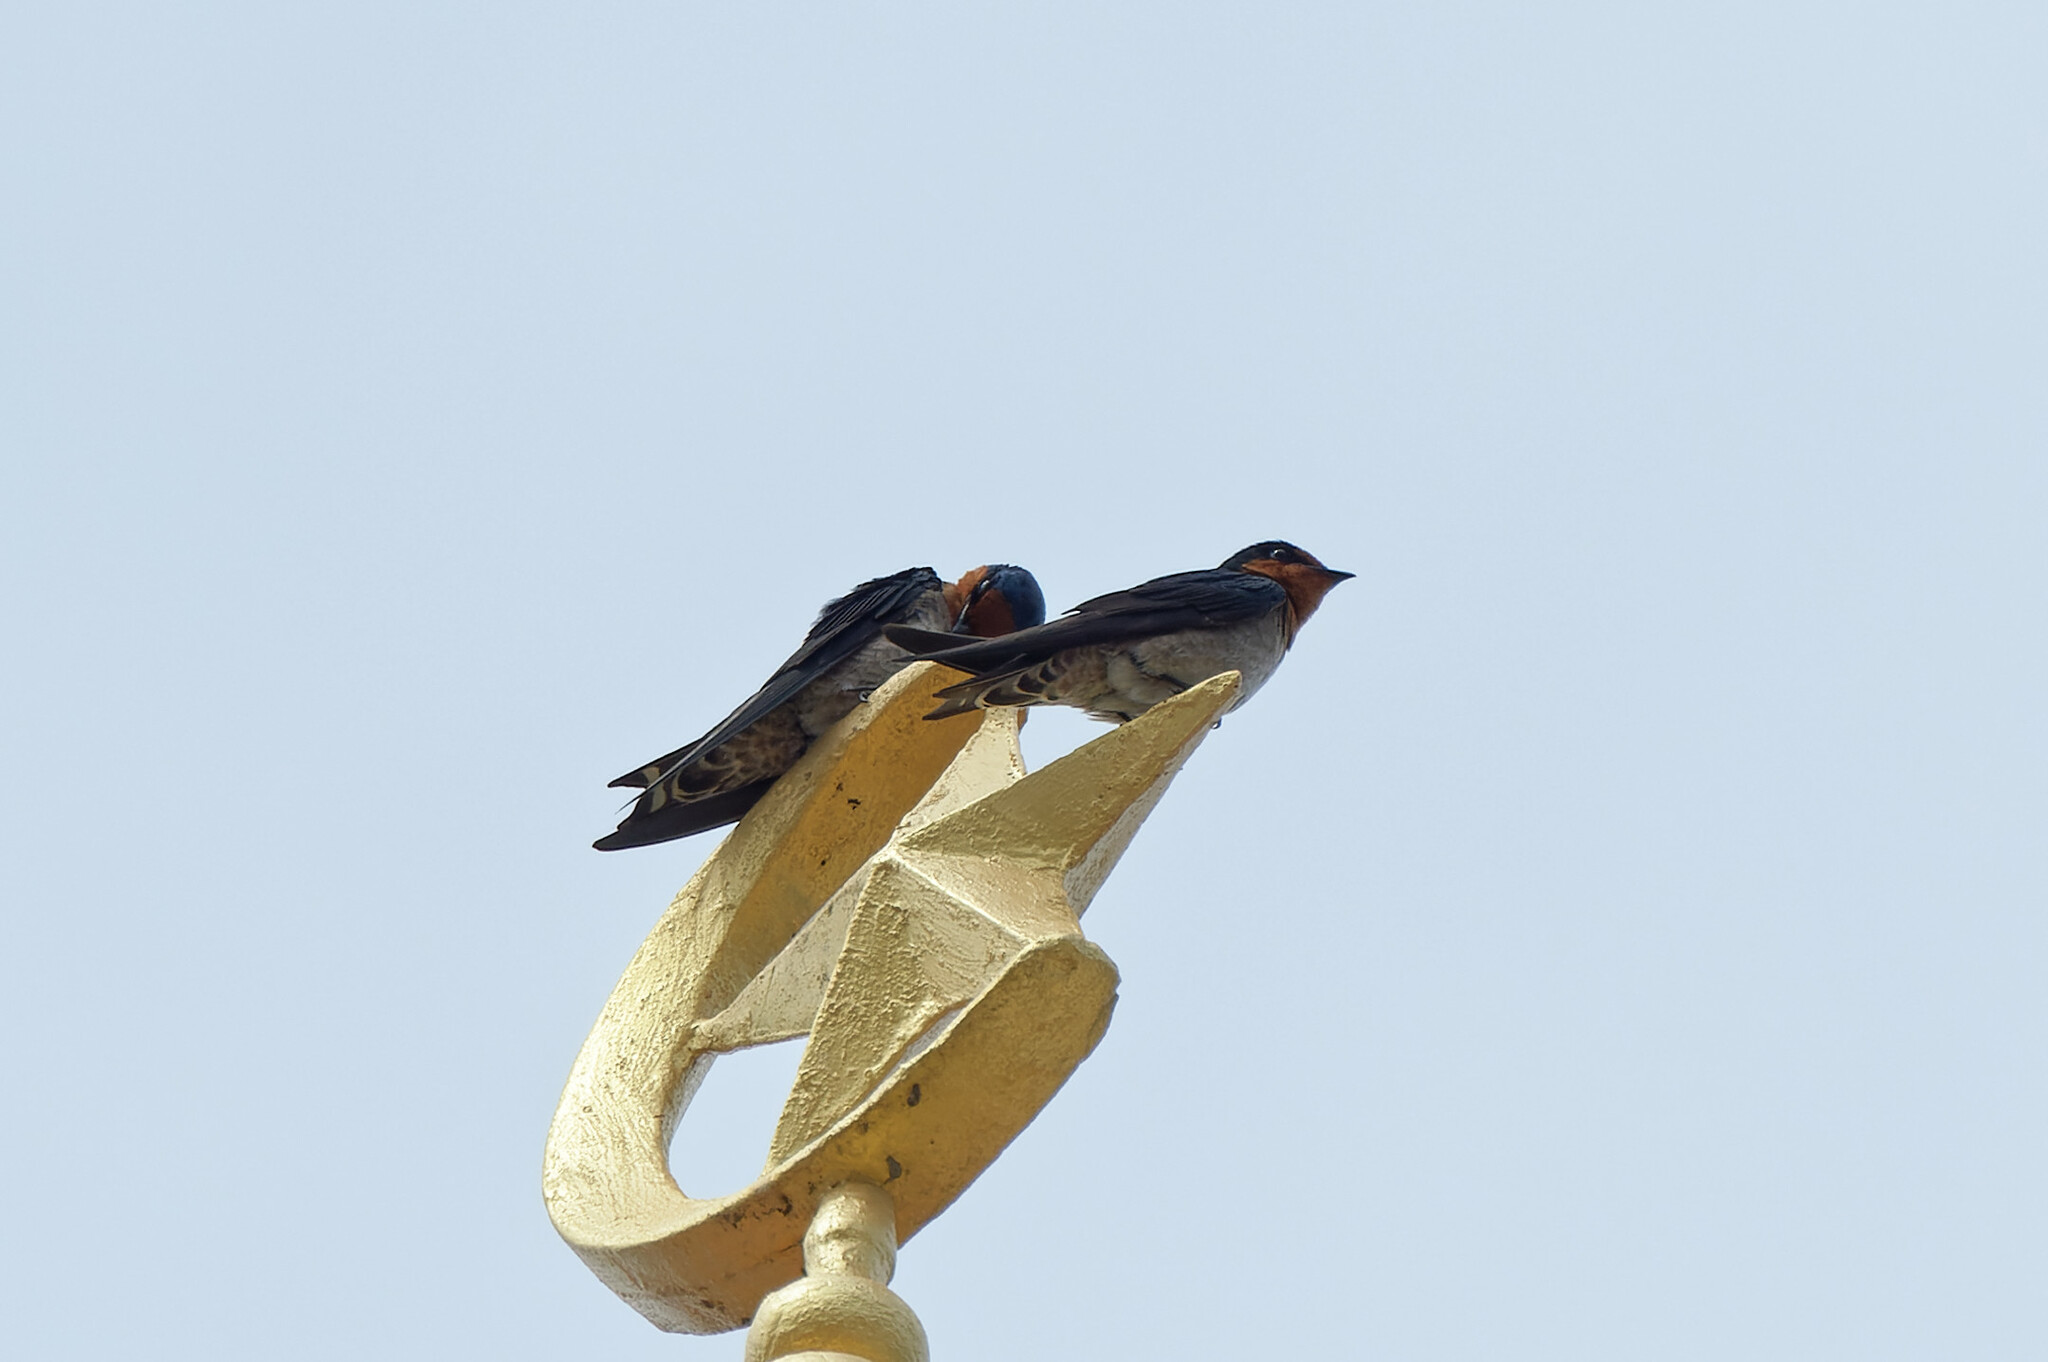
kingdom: Animalia
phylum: Chordata
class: Aves
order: Passeriformes
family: Hirundinidae
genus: Hirundo
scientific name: Hirundo tahitica
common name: Pacific swallow
